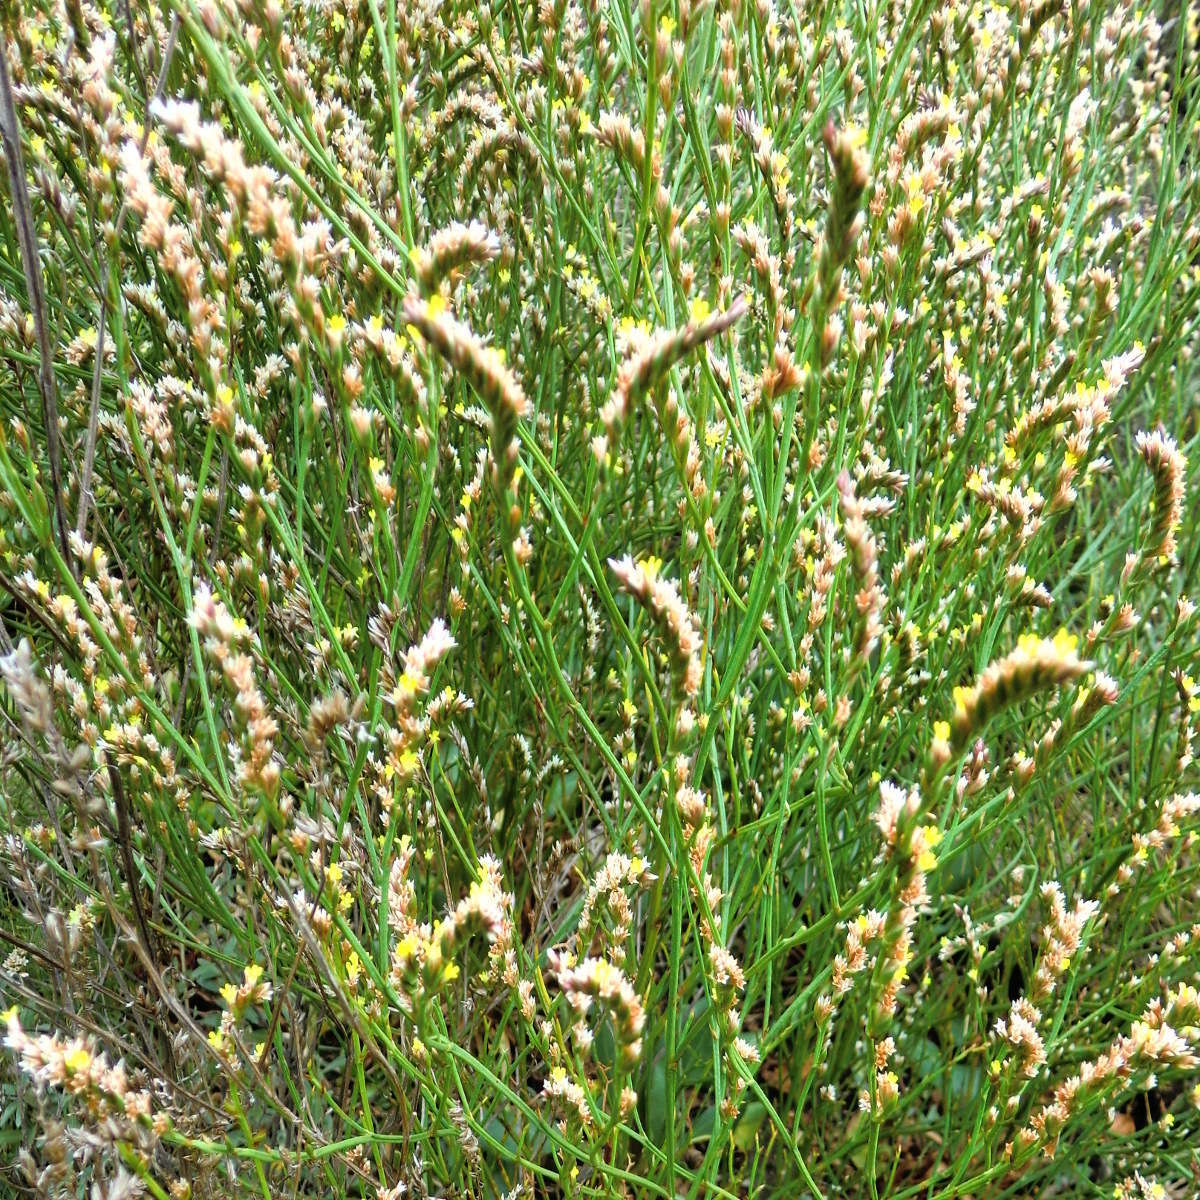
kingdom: Plantae
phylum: Tracheophyta
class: Magnoliopsida
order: Caryophyllales
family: Plumbaginaceae
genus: Limonium
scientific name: Limonium australe
